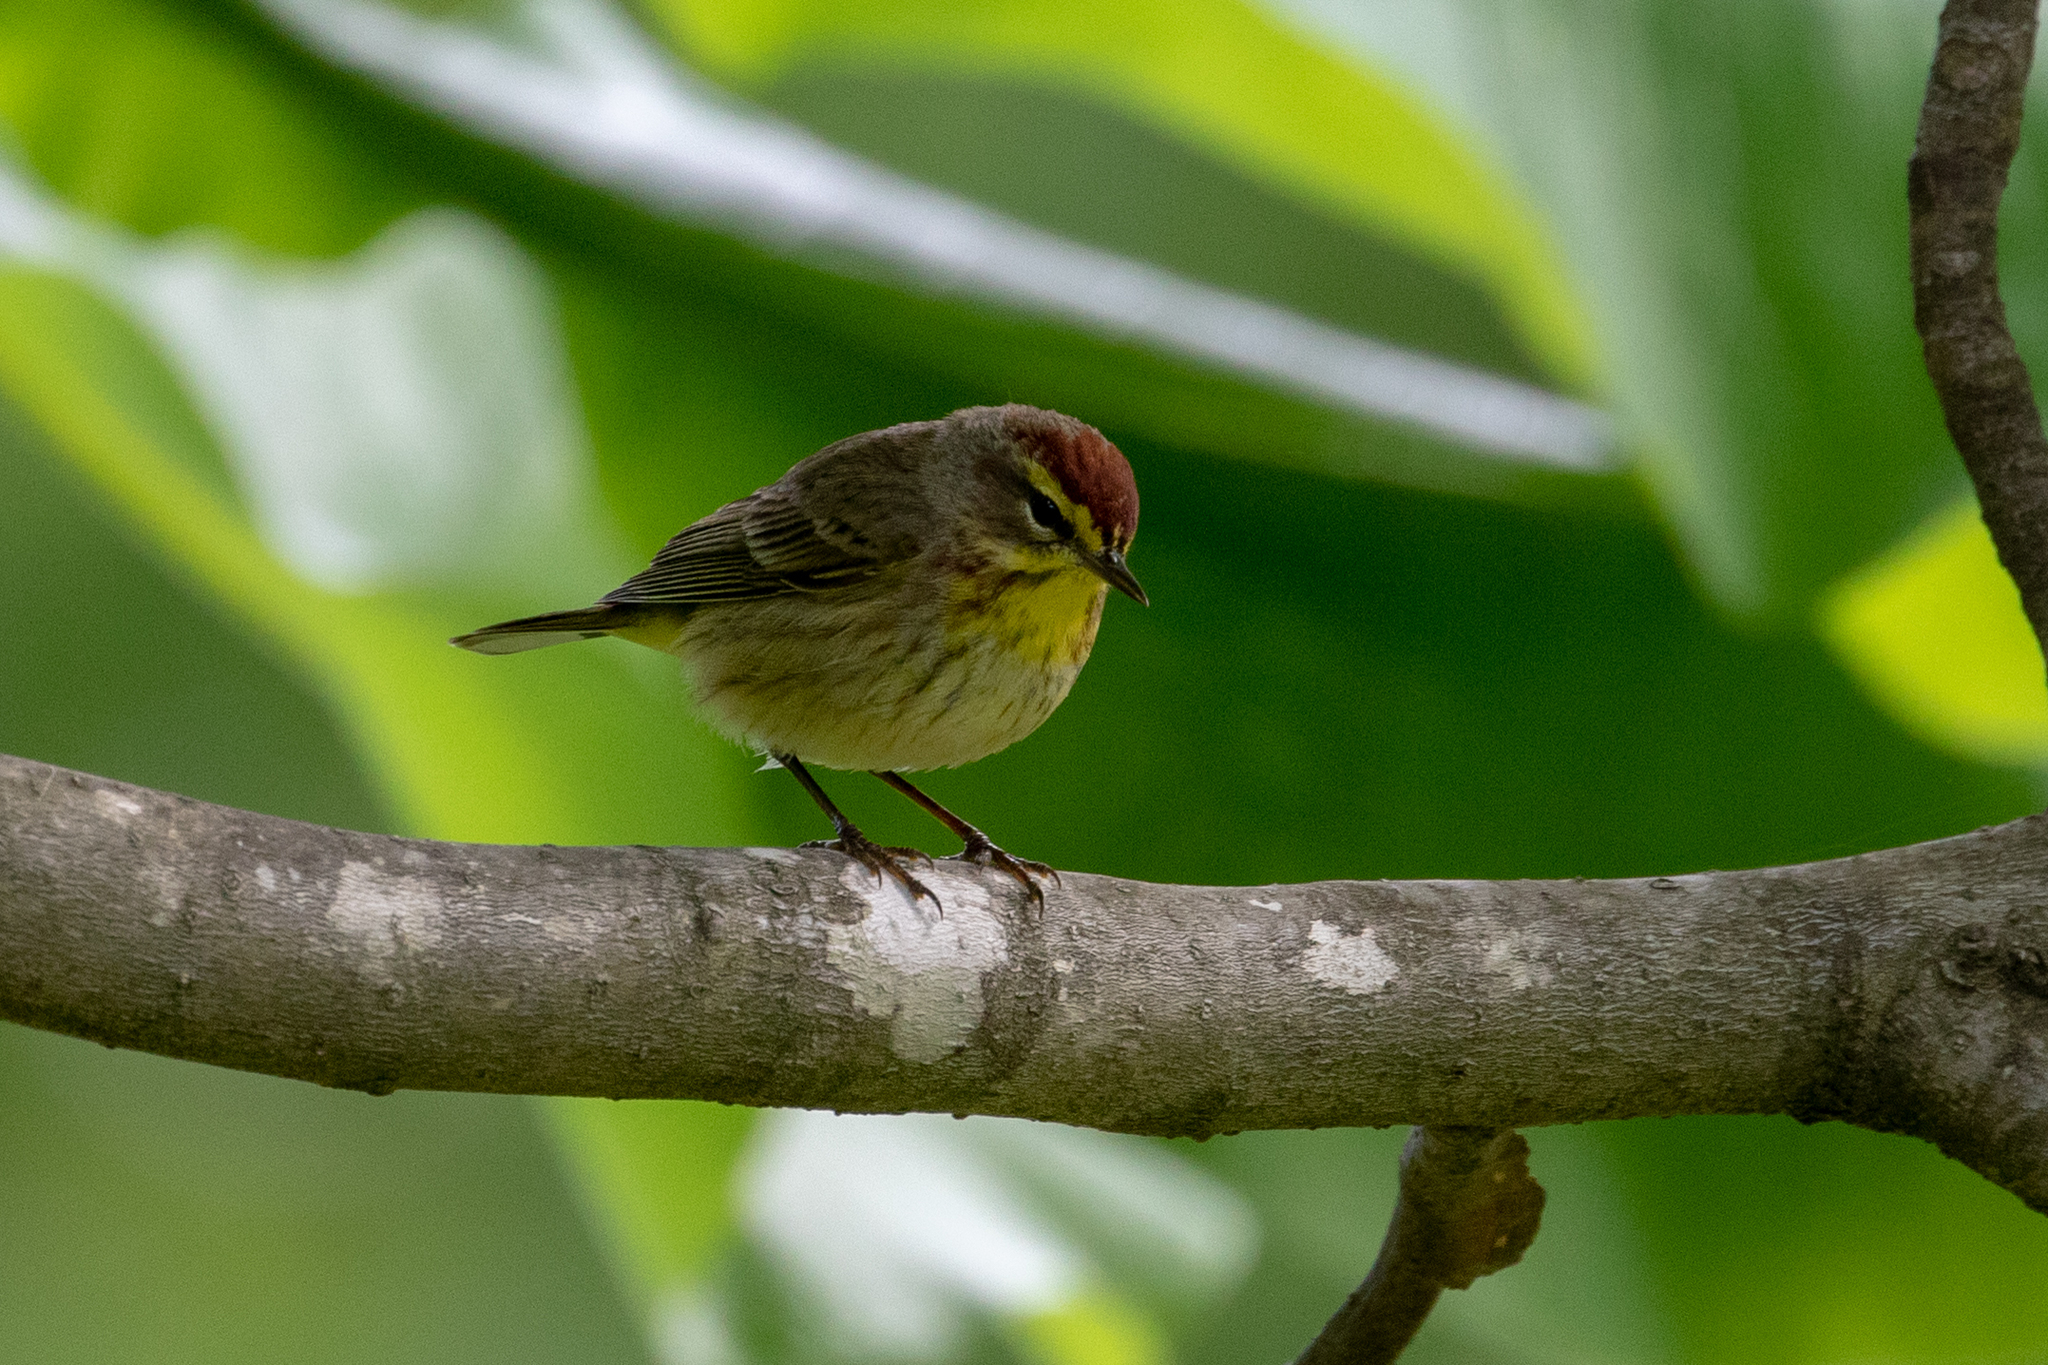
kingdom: Animalia
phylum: Chordata
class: Aves
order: Passeriformes
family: Parulidae
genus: Setophaga
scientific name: Setophaga palmarum
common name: Palm warbler
